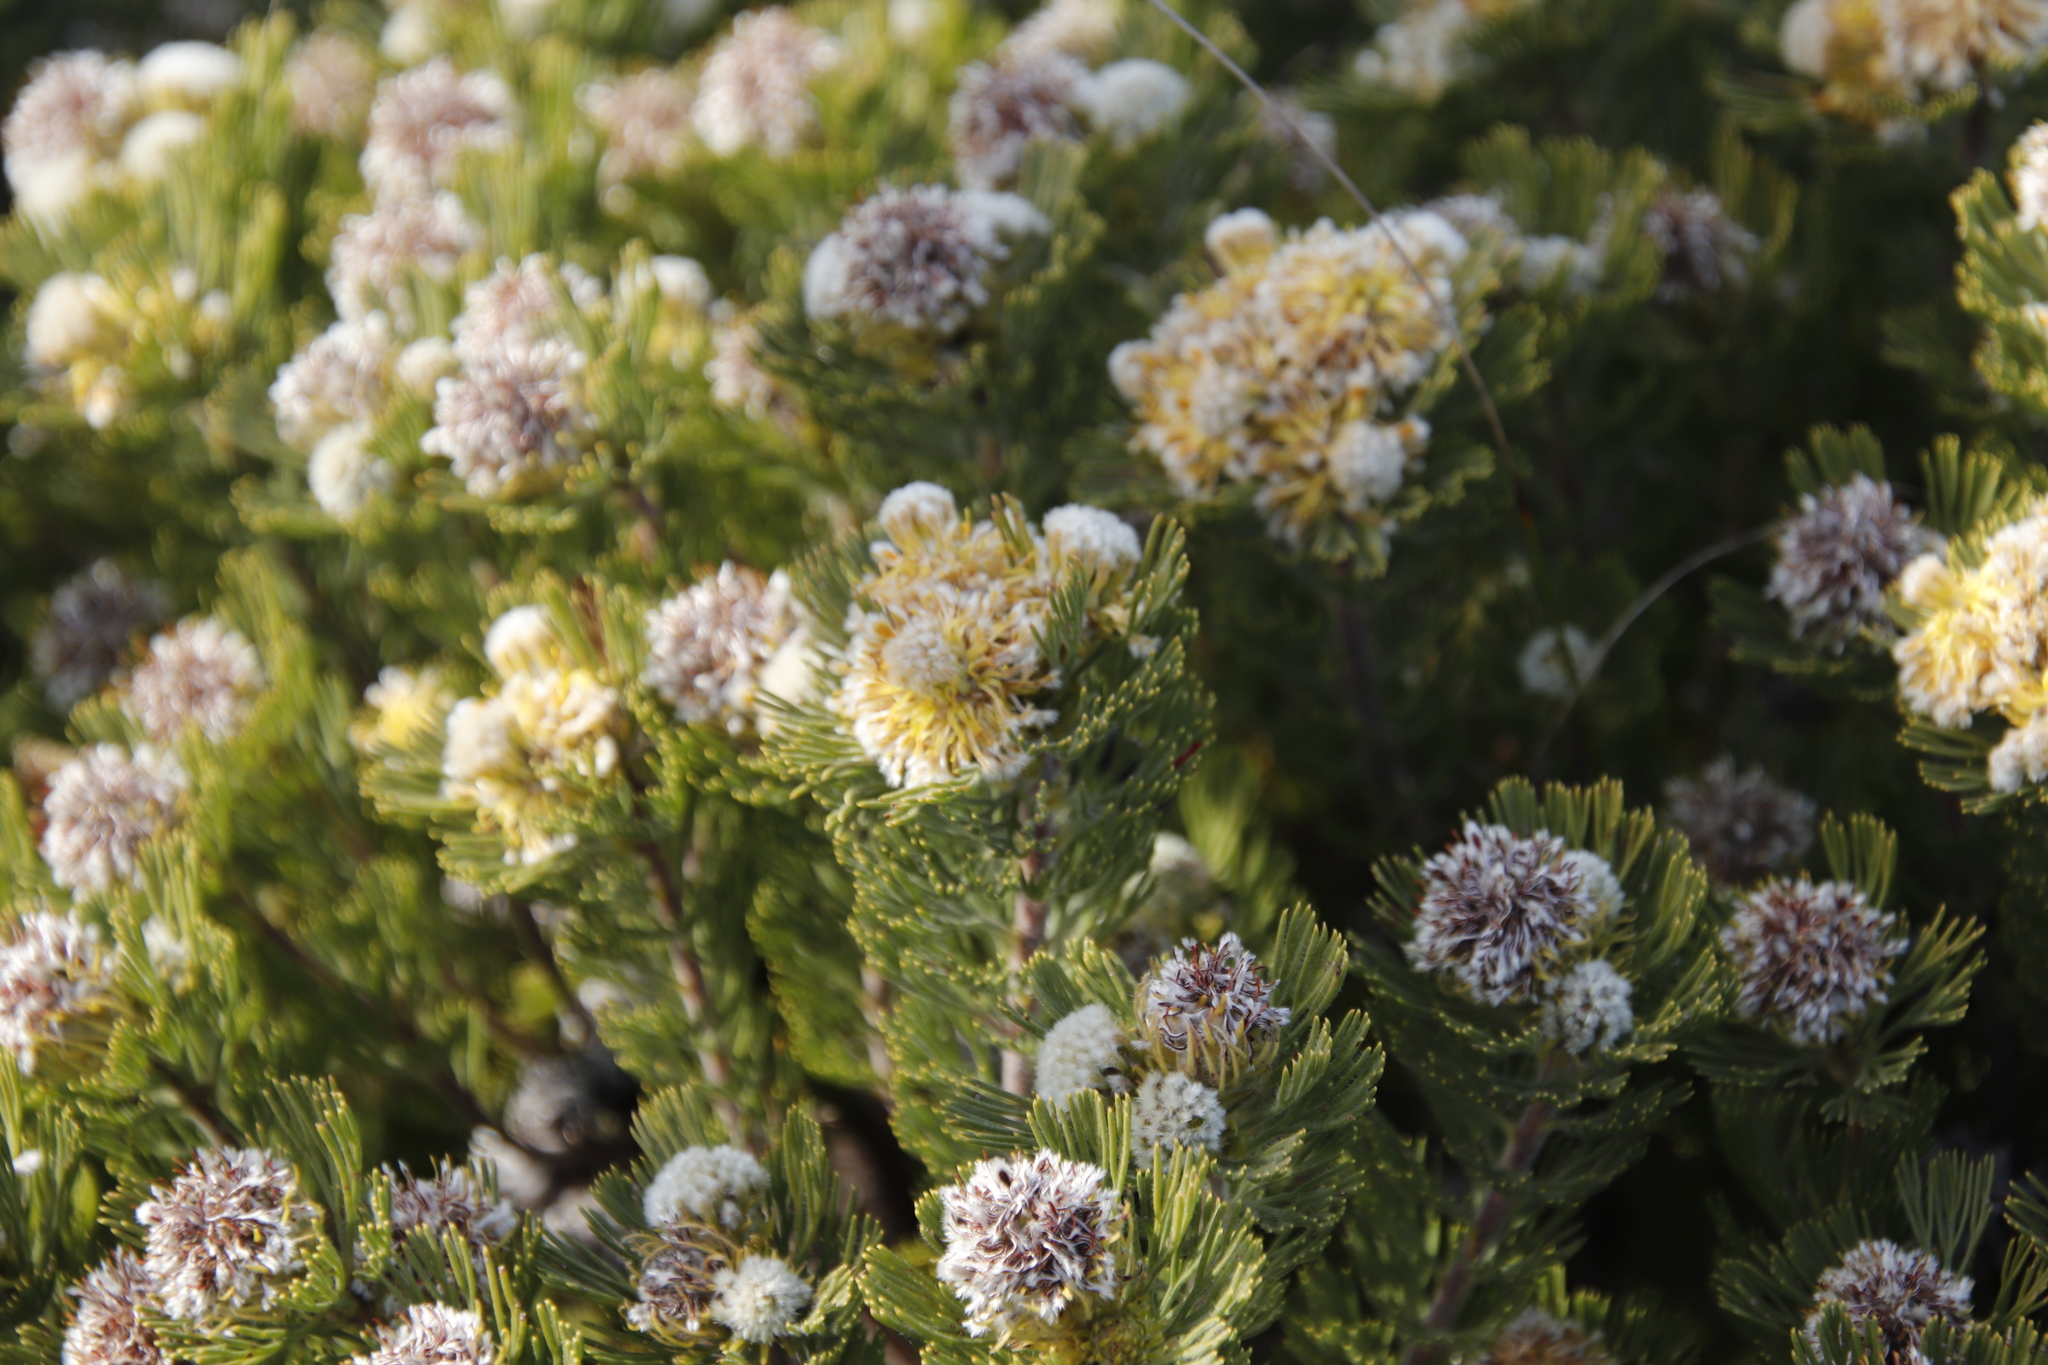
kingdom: Plantae
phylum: Tracheophyta
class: Magnoliopsida
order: Proteales
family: Proteaceae
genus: Serruria
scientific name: Serruria
